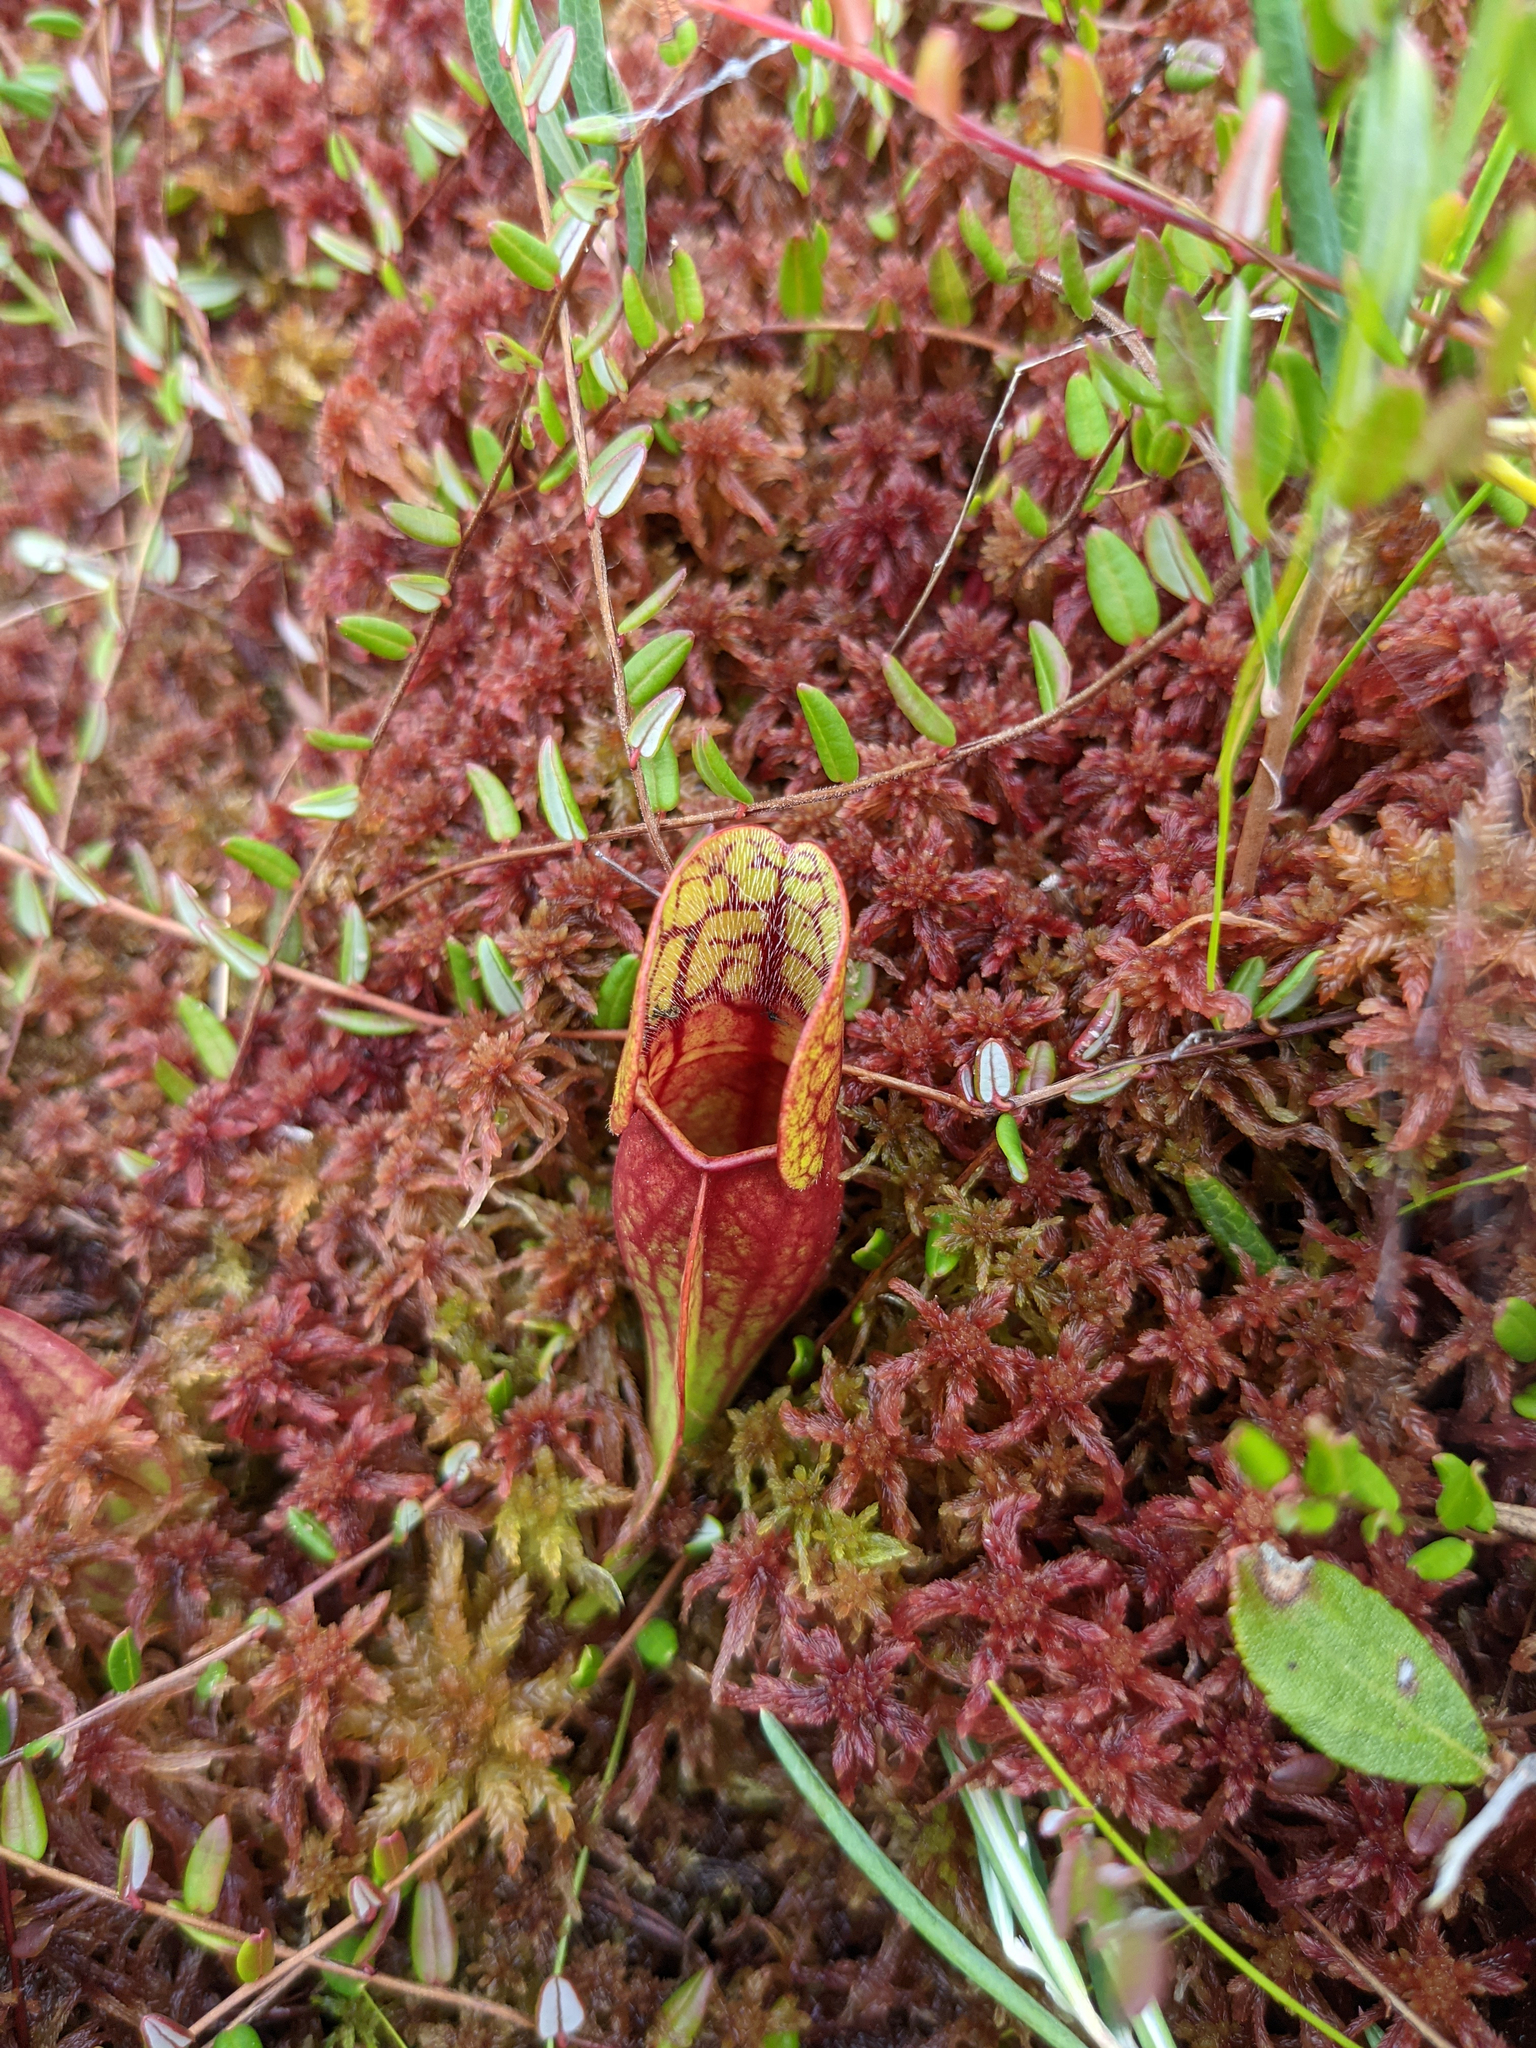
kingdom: Plantae
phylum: Tracheophyta
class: Magnoliopsida
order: Ericales
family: Sarraceniaceae
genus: Sarracenia
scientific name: Sarracenia purpurea
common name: Pitcherplant
